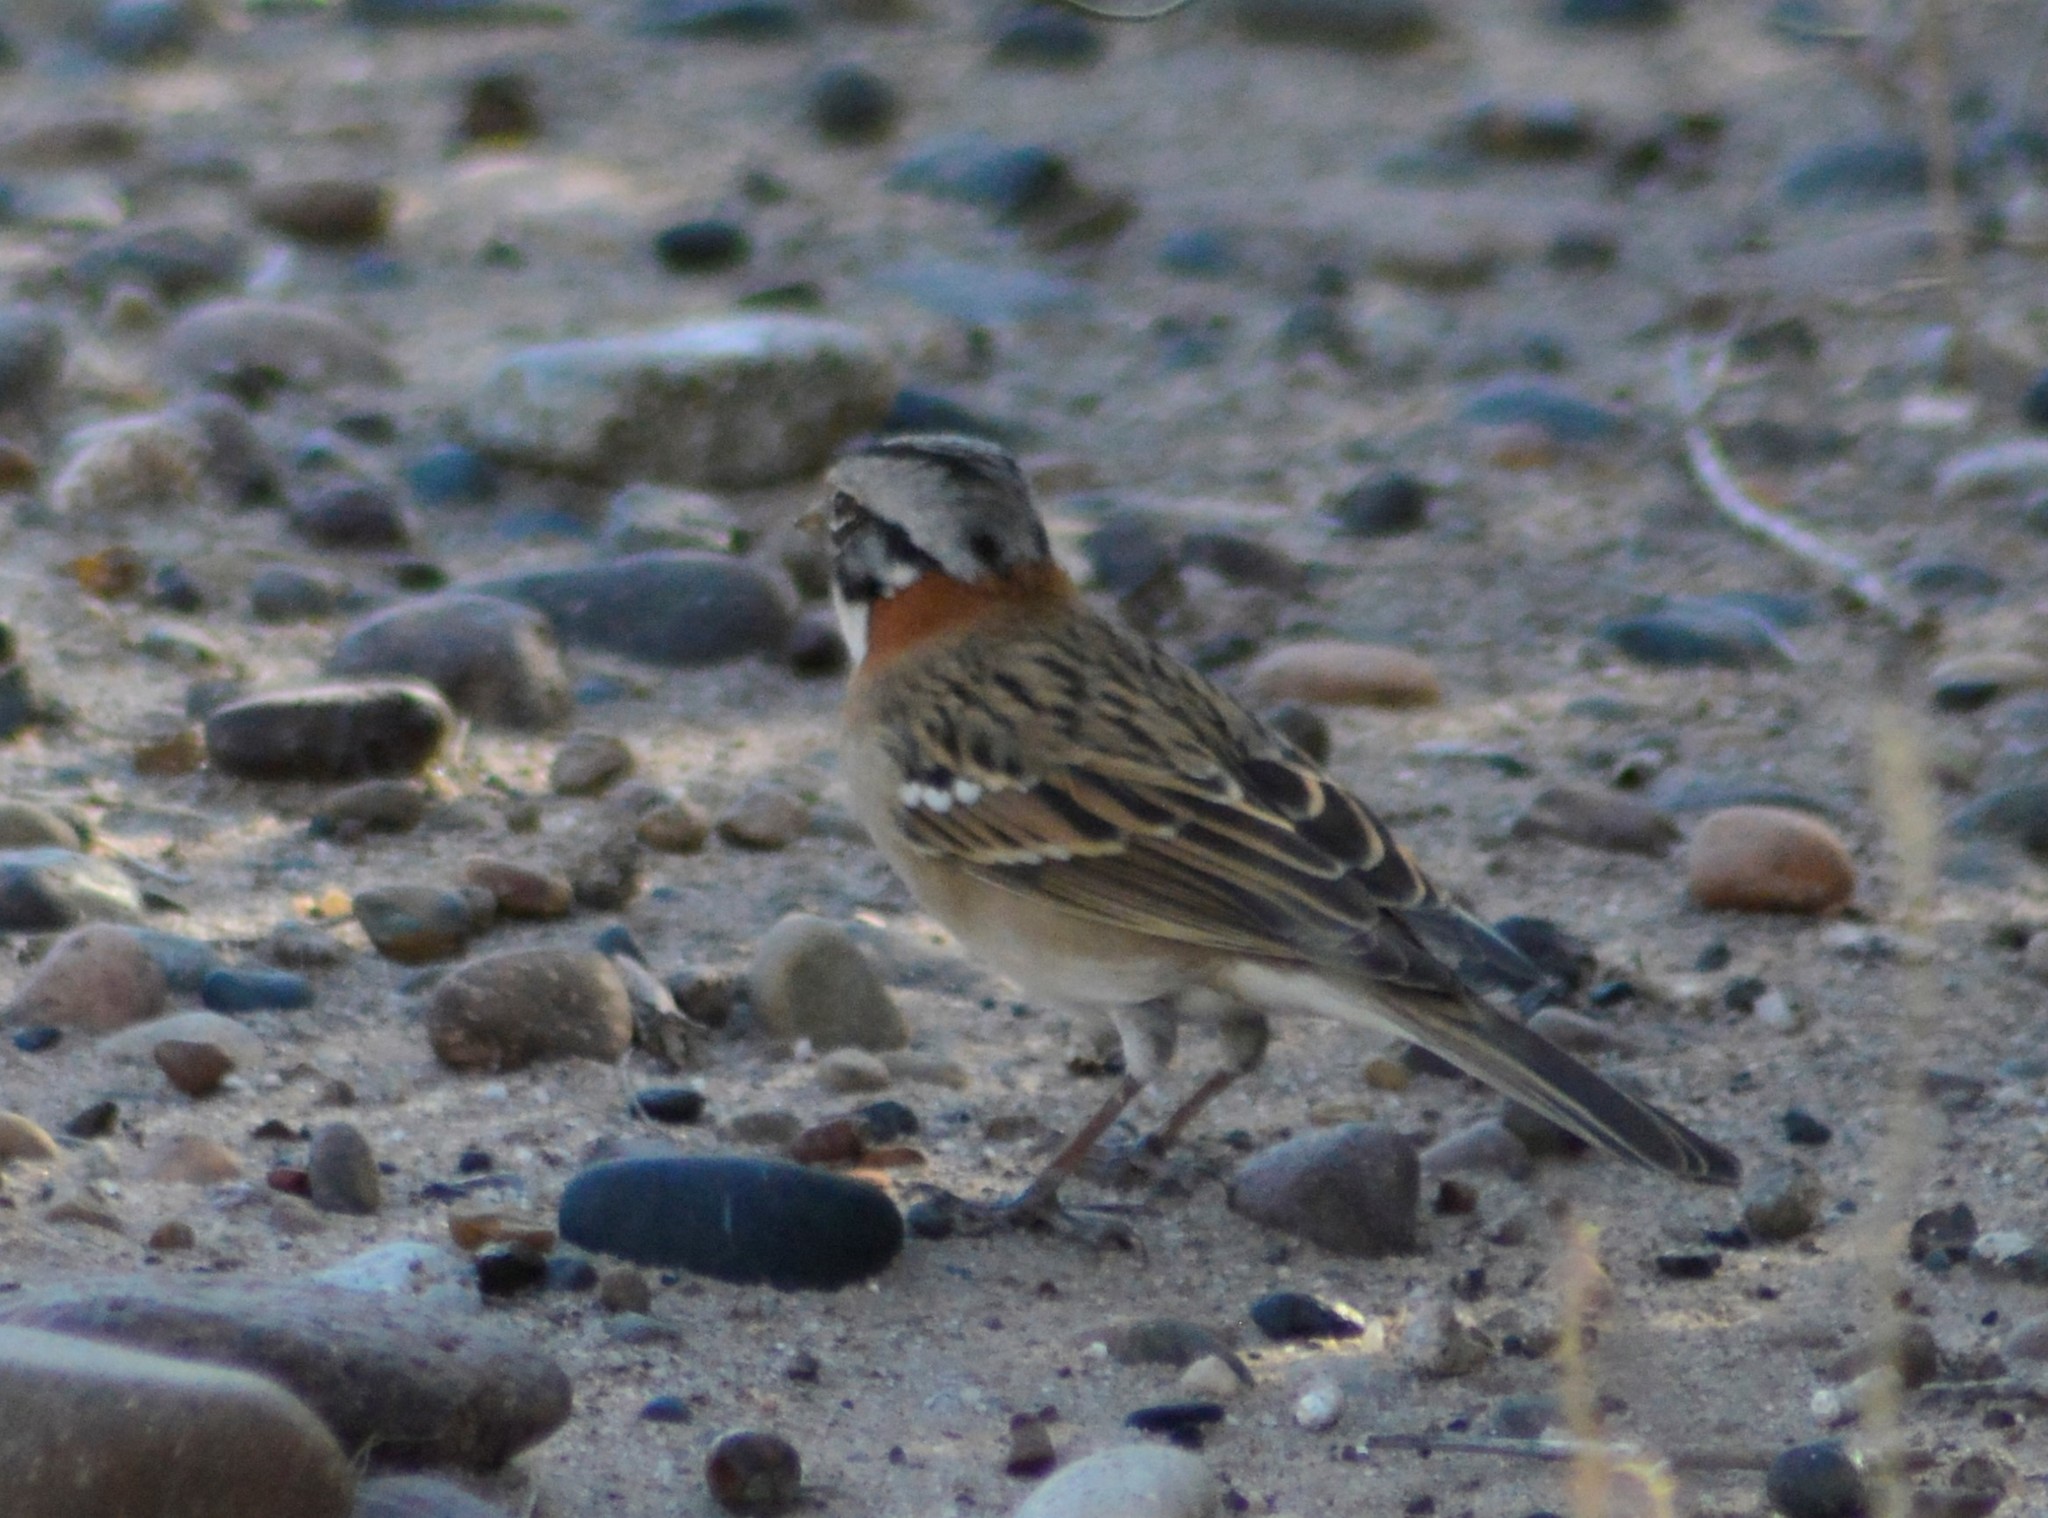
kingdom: Animalia
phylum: Chordata
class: Aves
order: Passeriformes
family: Passerellidae
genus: Zonotrichia
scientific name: Zonotrichia capensis
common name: Rufous-collared sparrow
